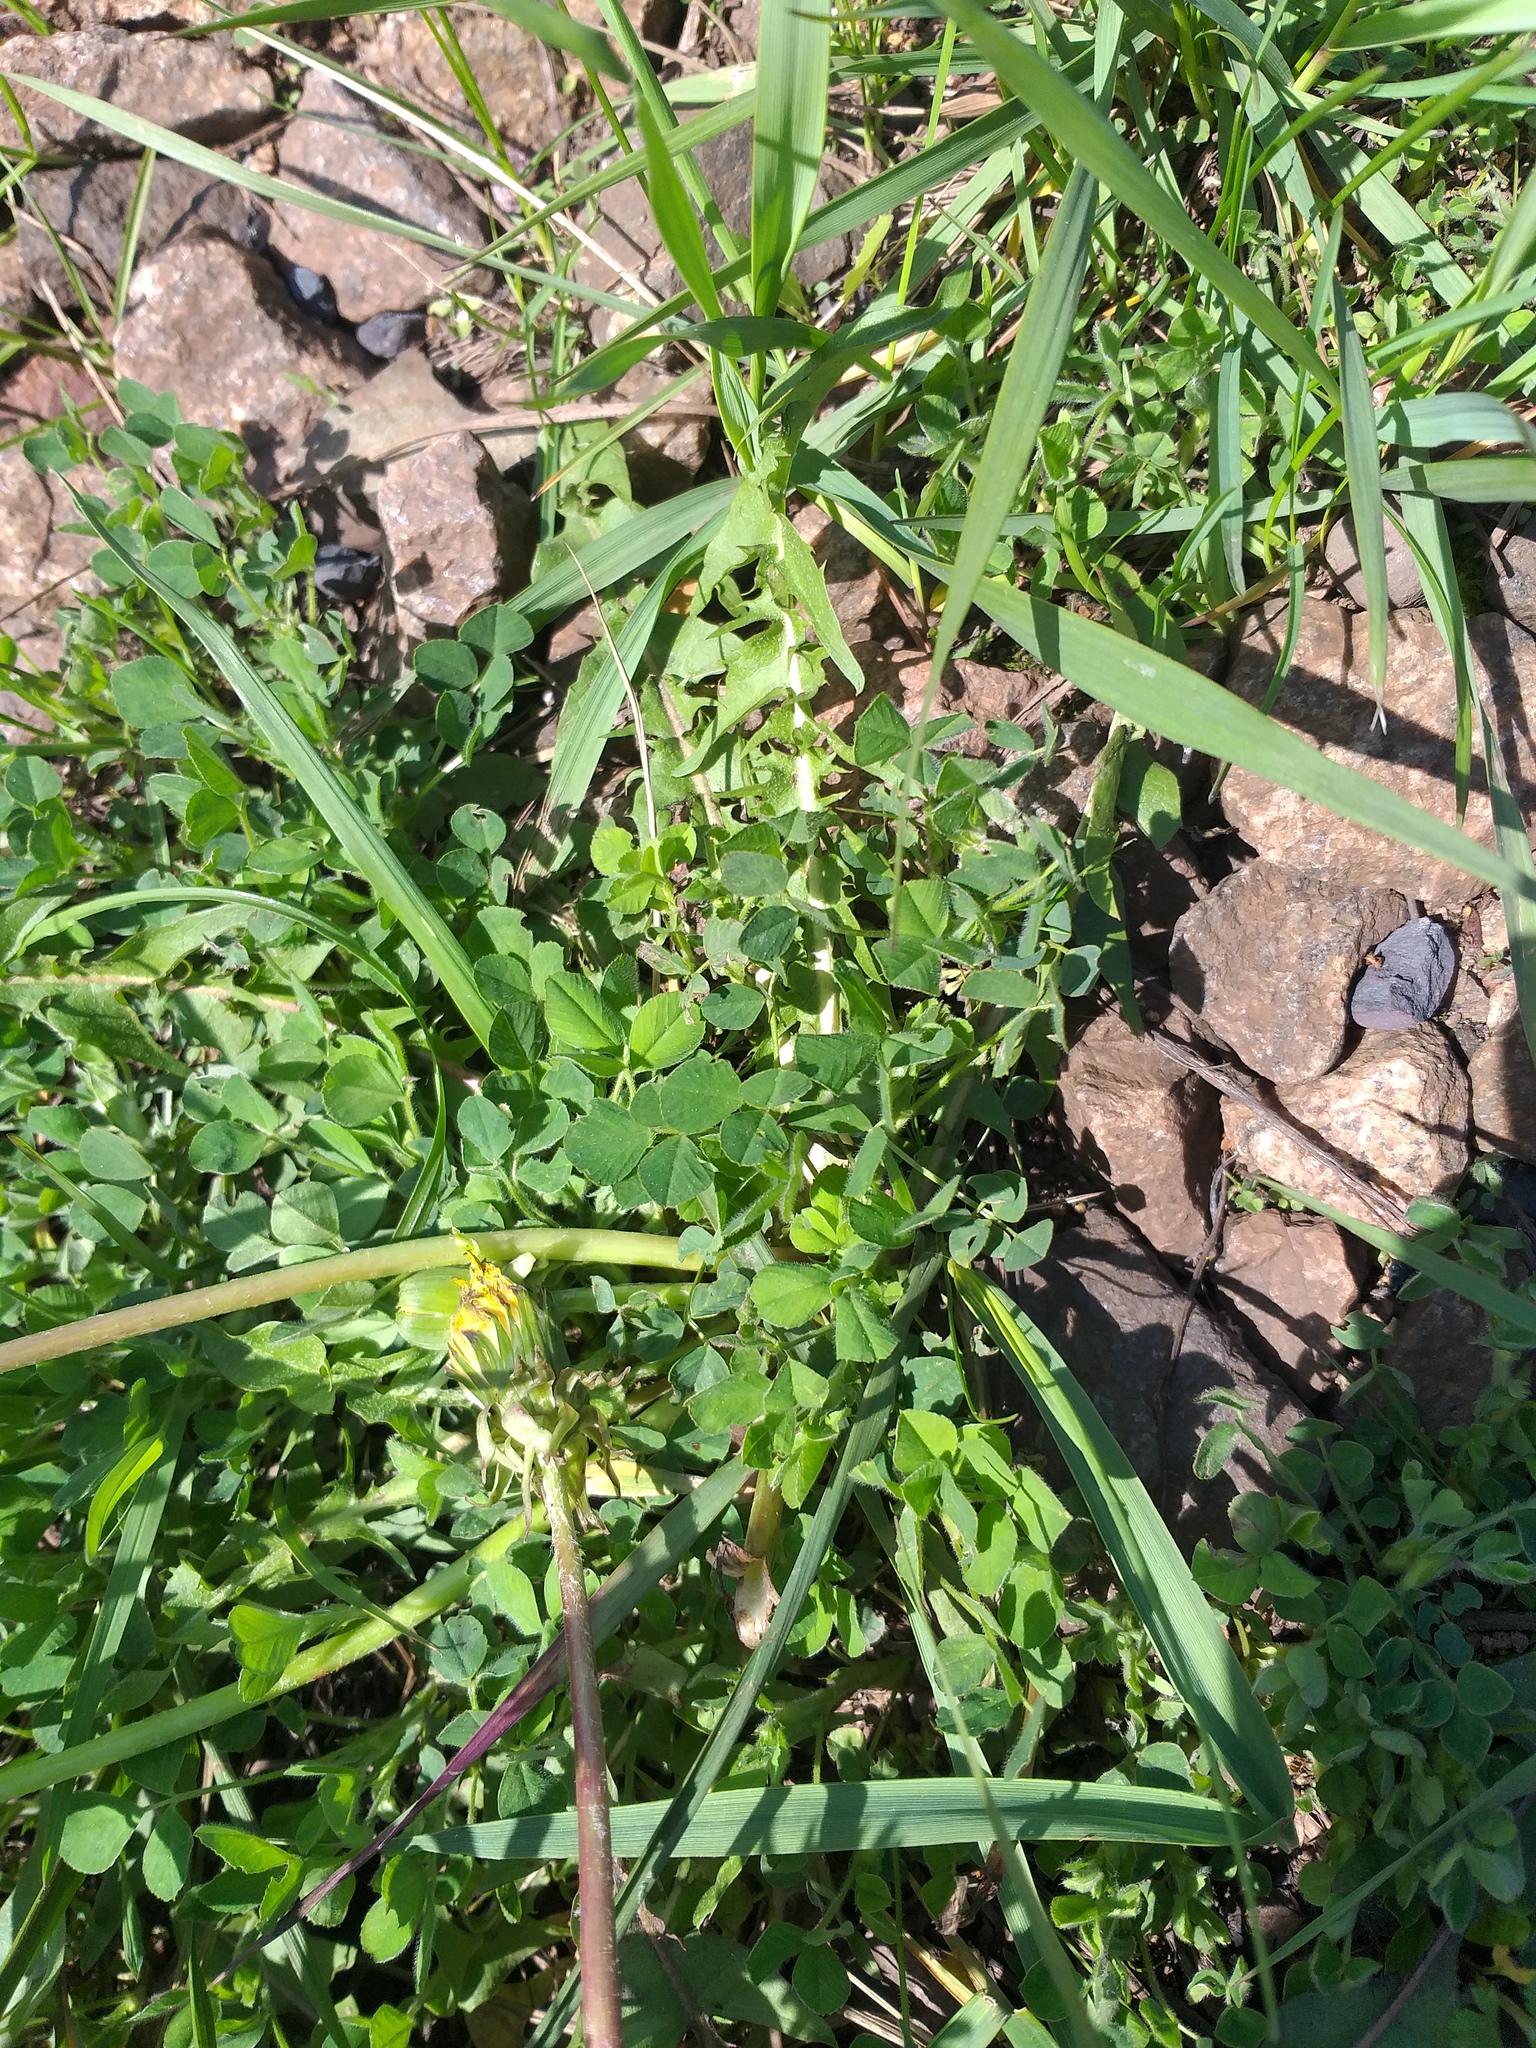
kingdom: Plantae
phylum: Tracheophyta
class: Magnoliopsida
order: Fabales
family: Fabaceae
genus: Medicago
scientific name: Medicago lupulina
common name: Black medick
